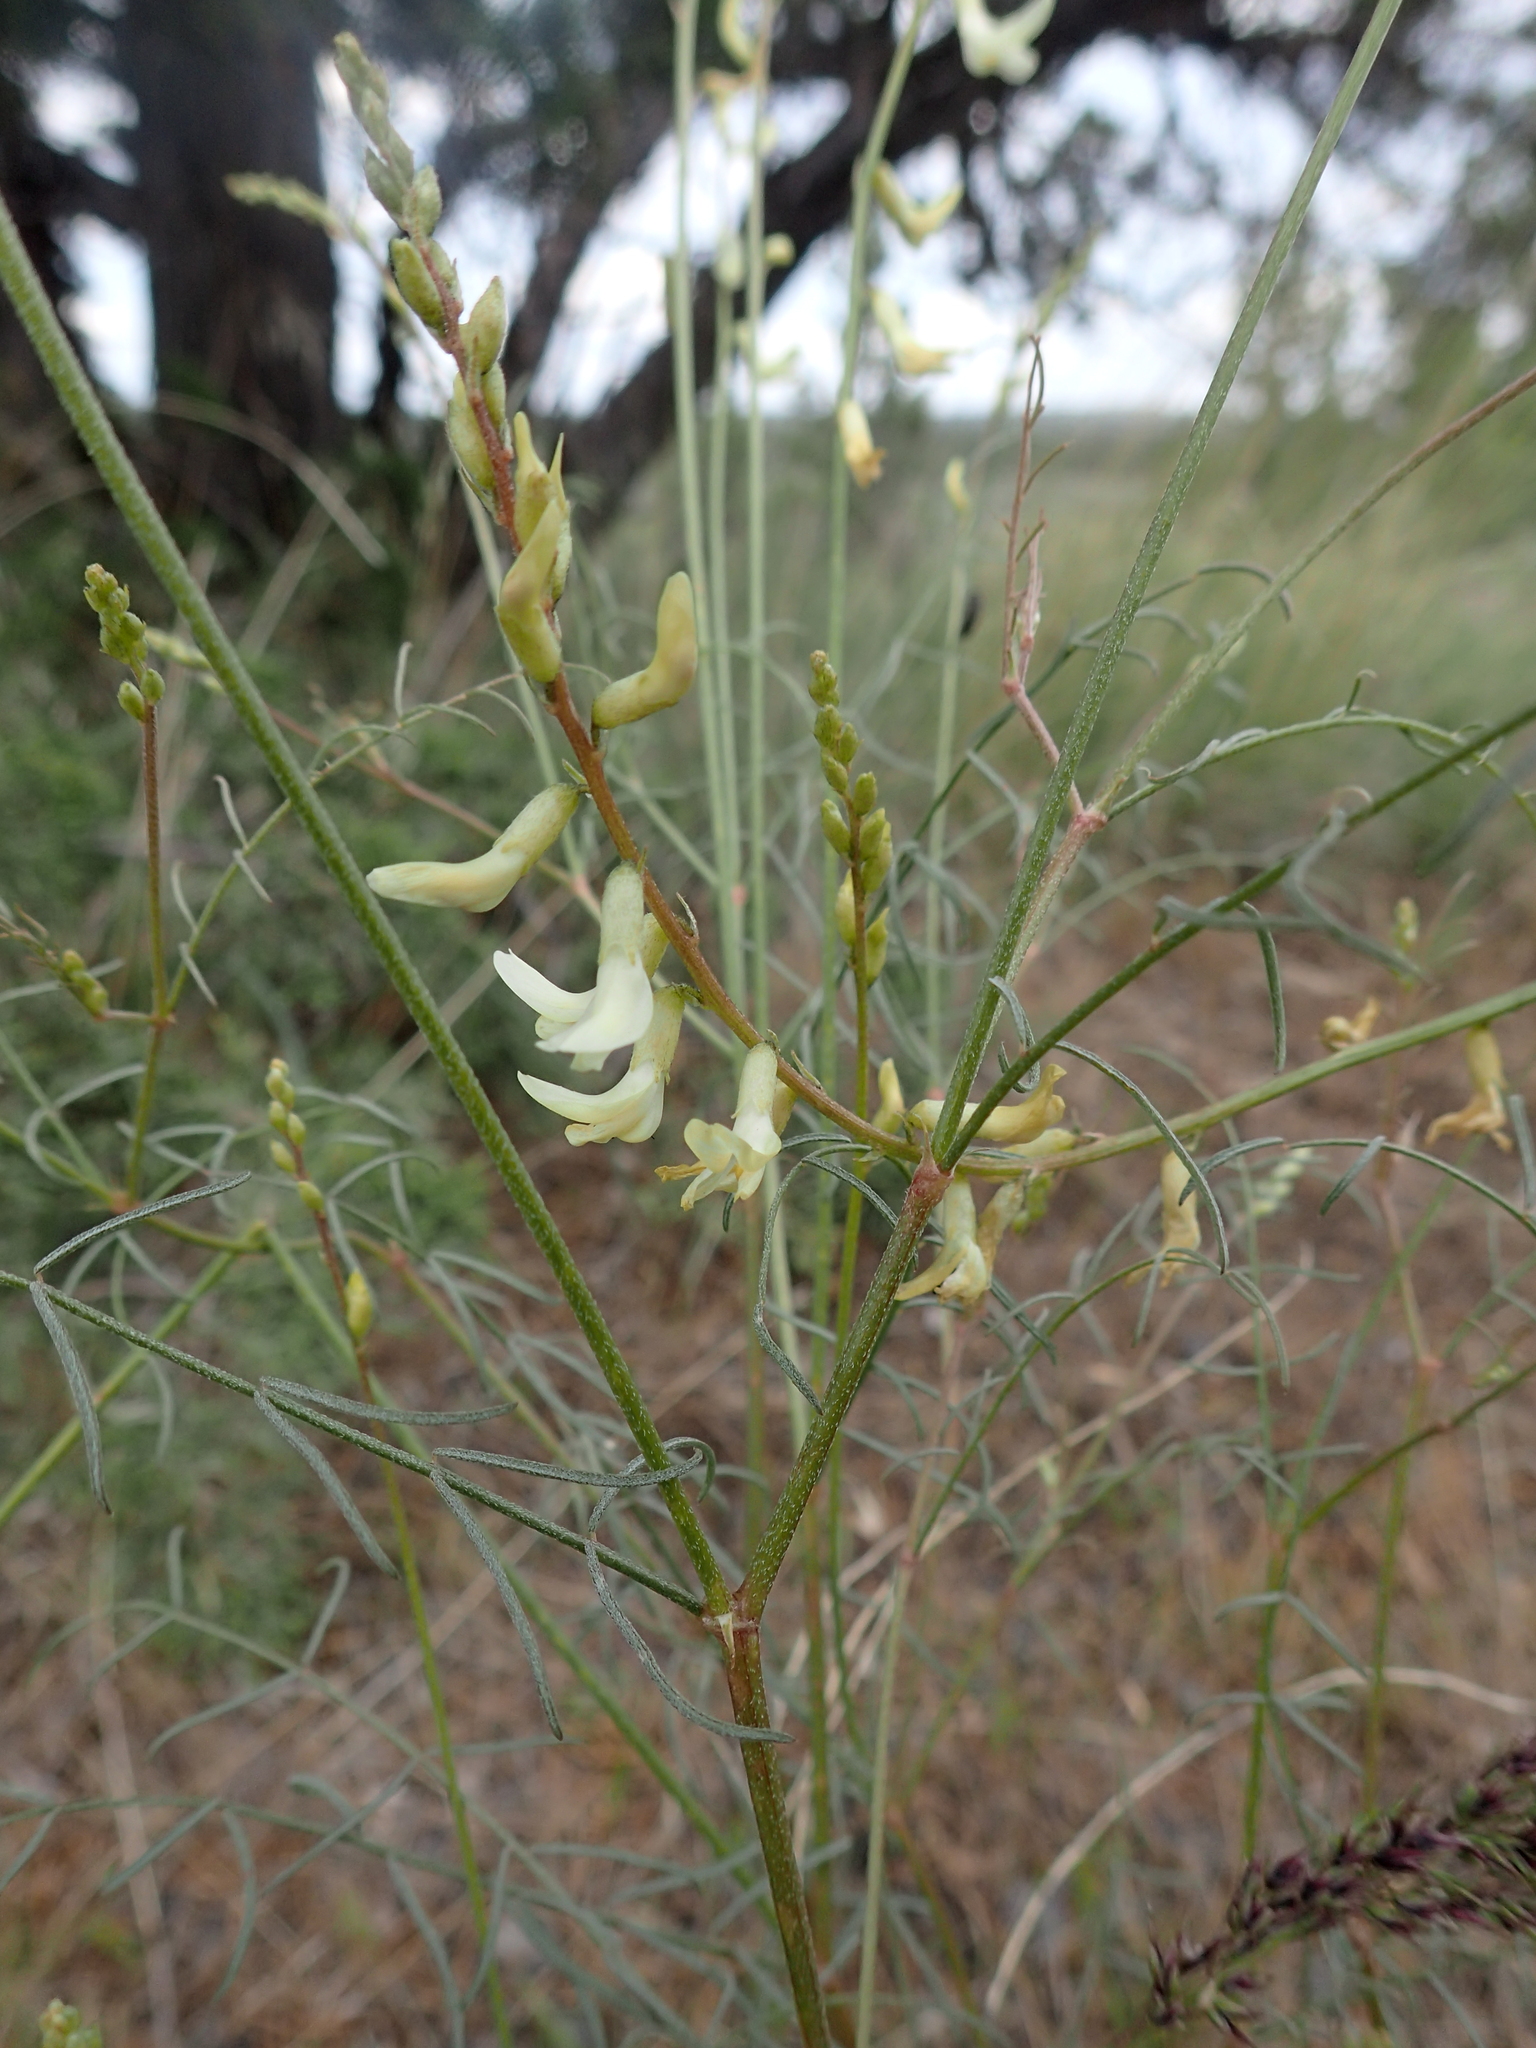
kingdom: Plantae
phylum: Tracheophyta
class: Magnoliopsida
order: Fabales
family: Fabaceae
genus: Astragalus
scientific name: Astragalus filipes
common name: Basalt milk-vetch
